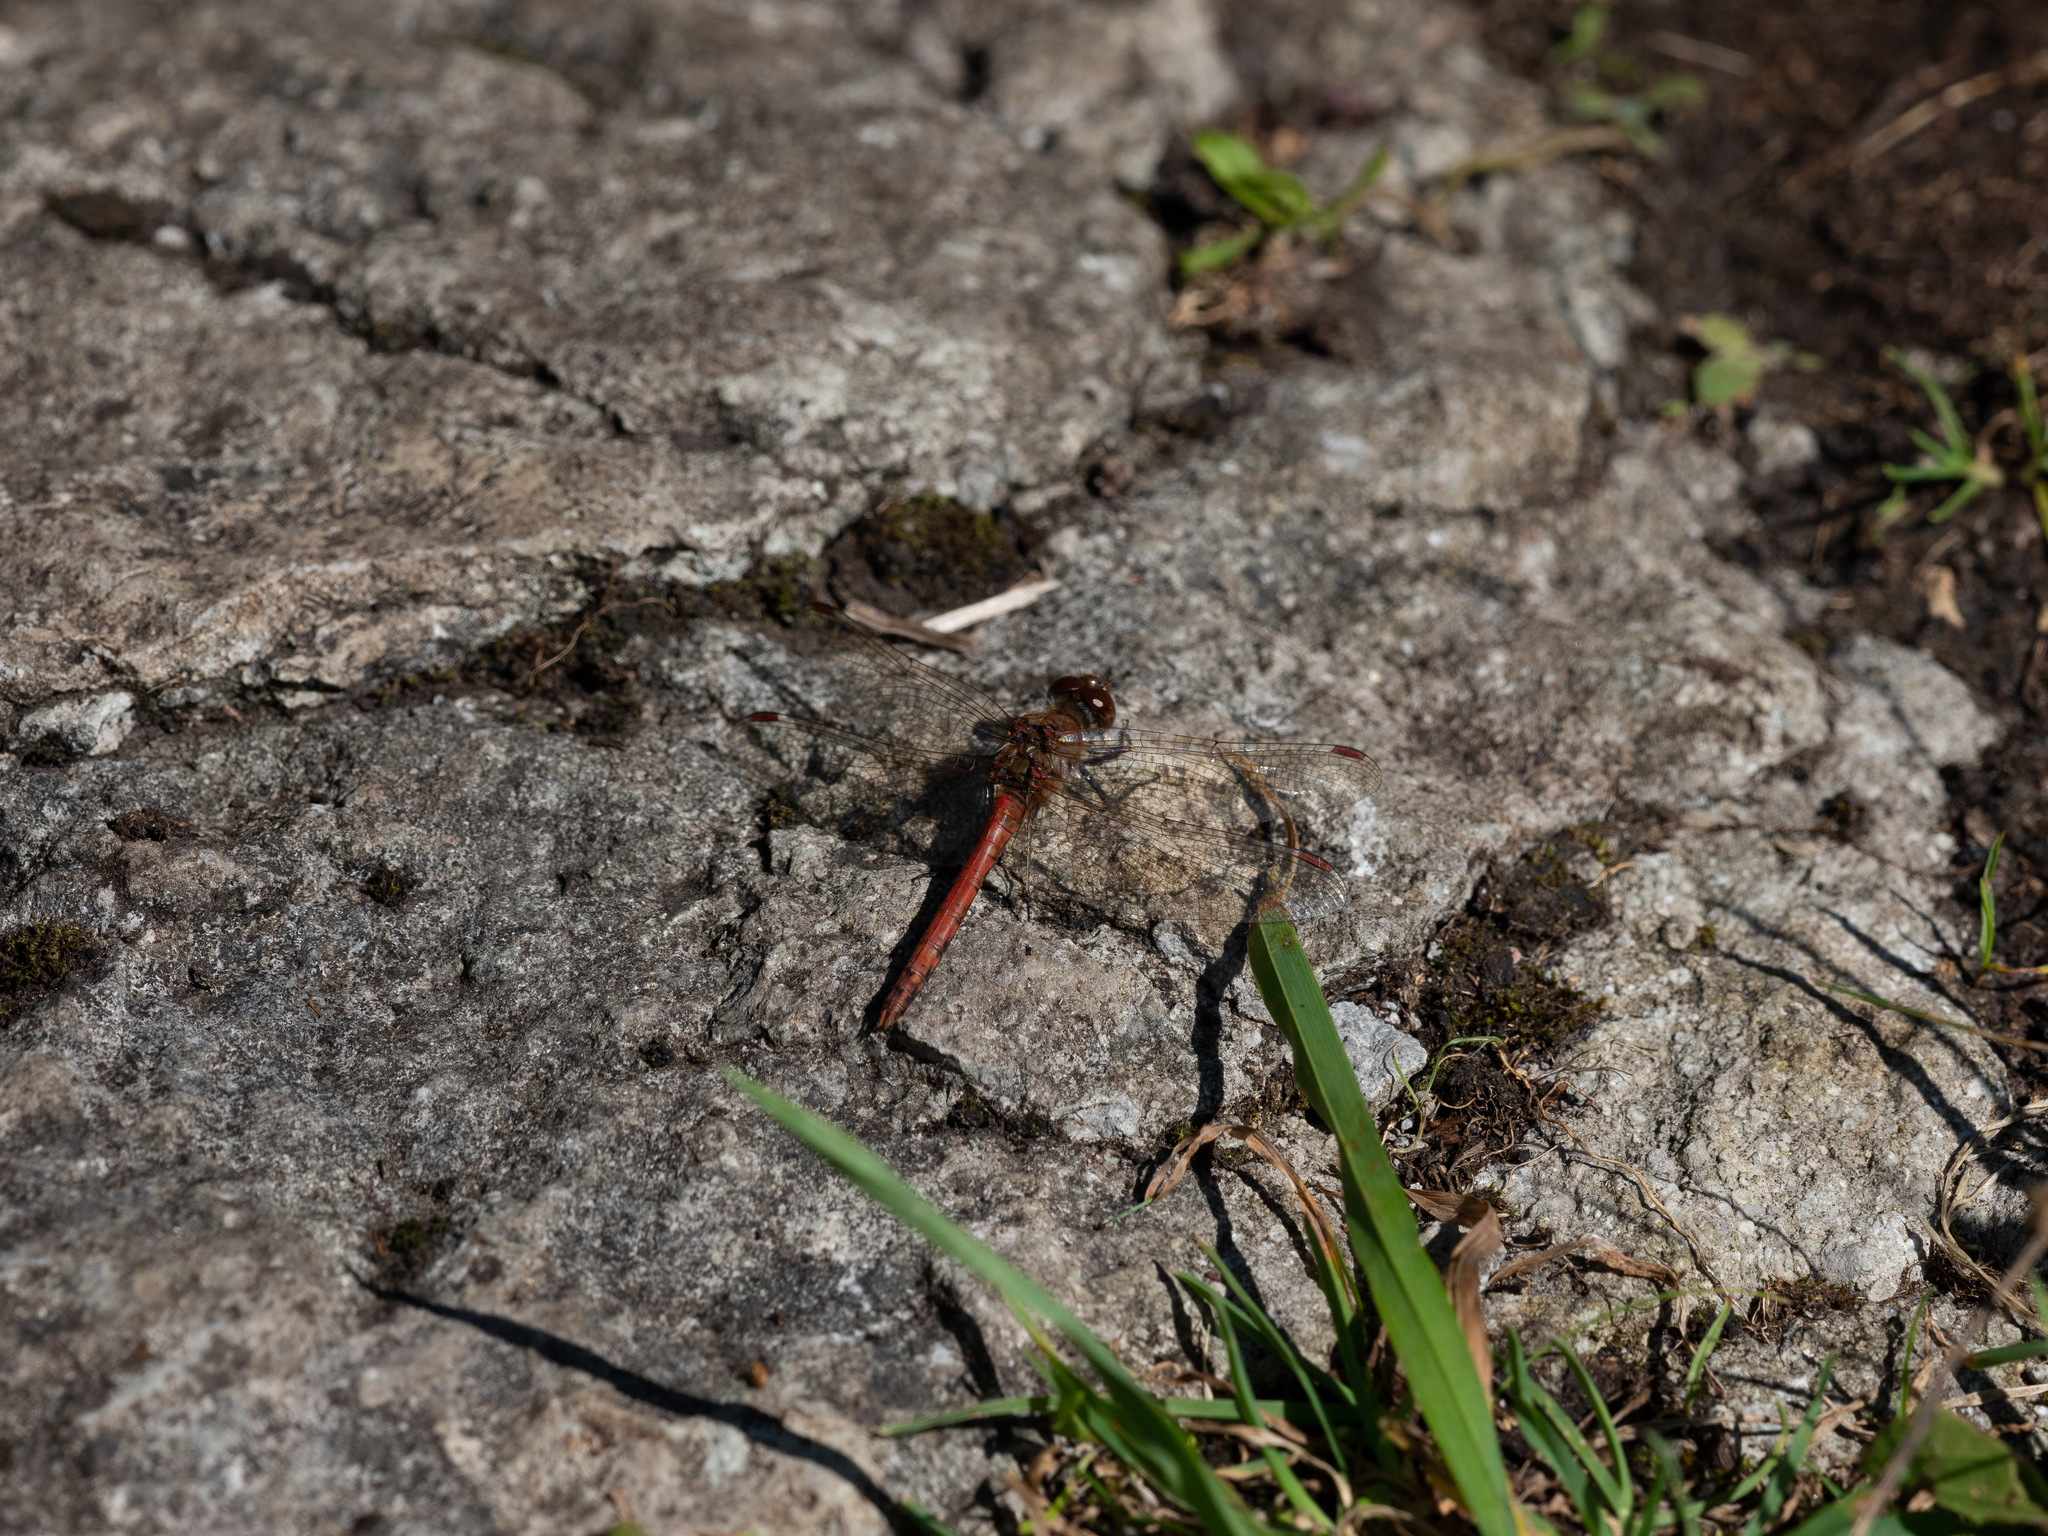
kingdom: Animalia
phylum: Arthropoda
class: Insecta
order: Odonata
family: Libellulidae
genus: Sympetrum
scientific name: Sympetrum striolatum
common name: Common darter
